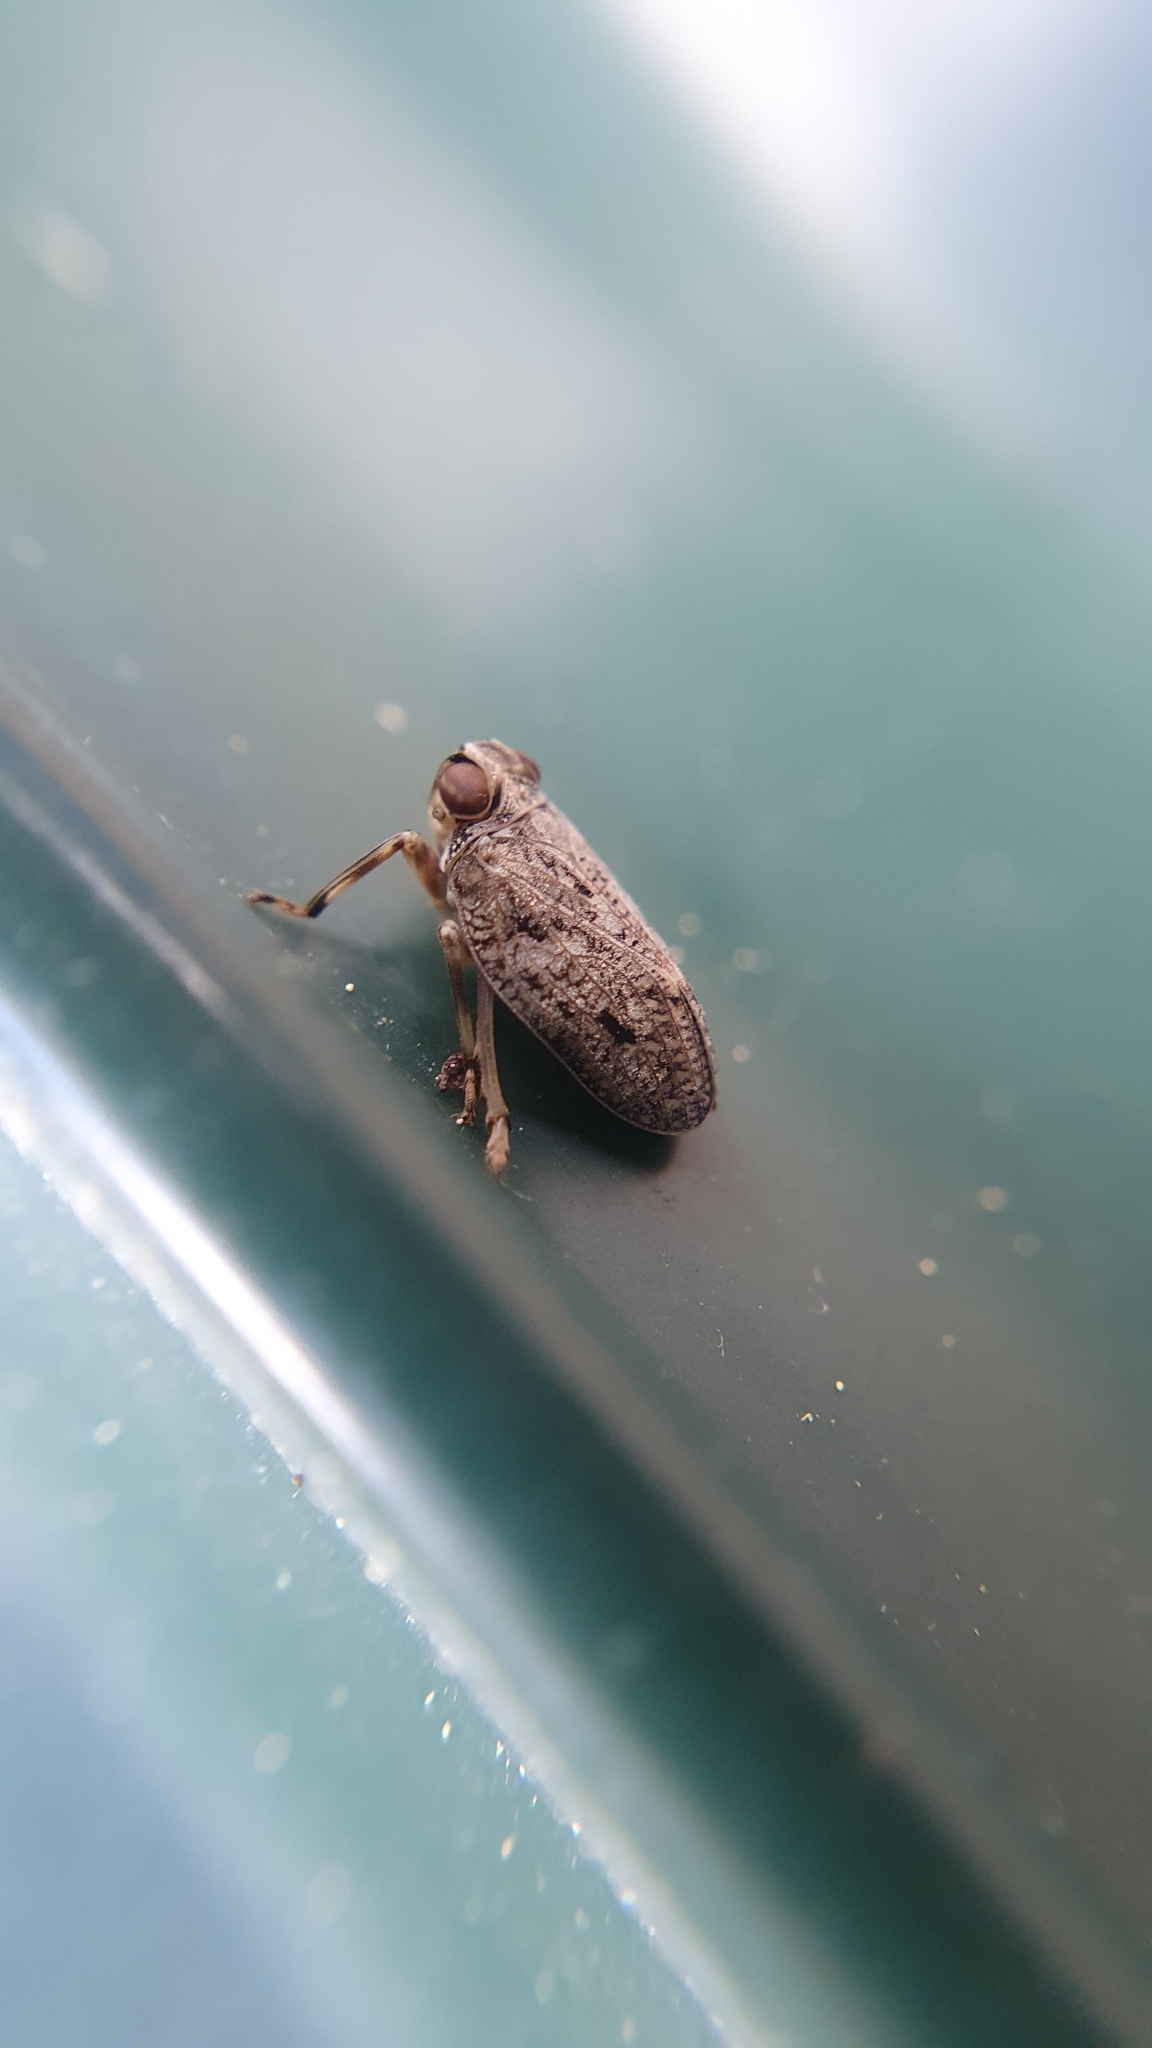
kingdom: Animalia
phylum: Arthropoda
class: Insecta
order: Hemiptera
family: Issidae
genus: Issus
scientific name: Issus coleoptratus
